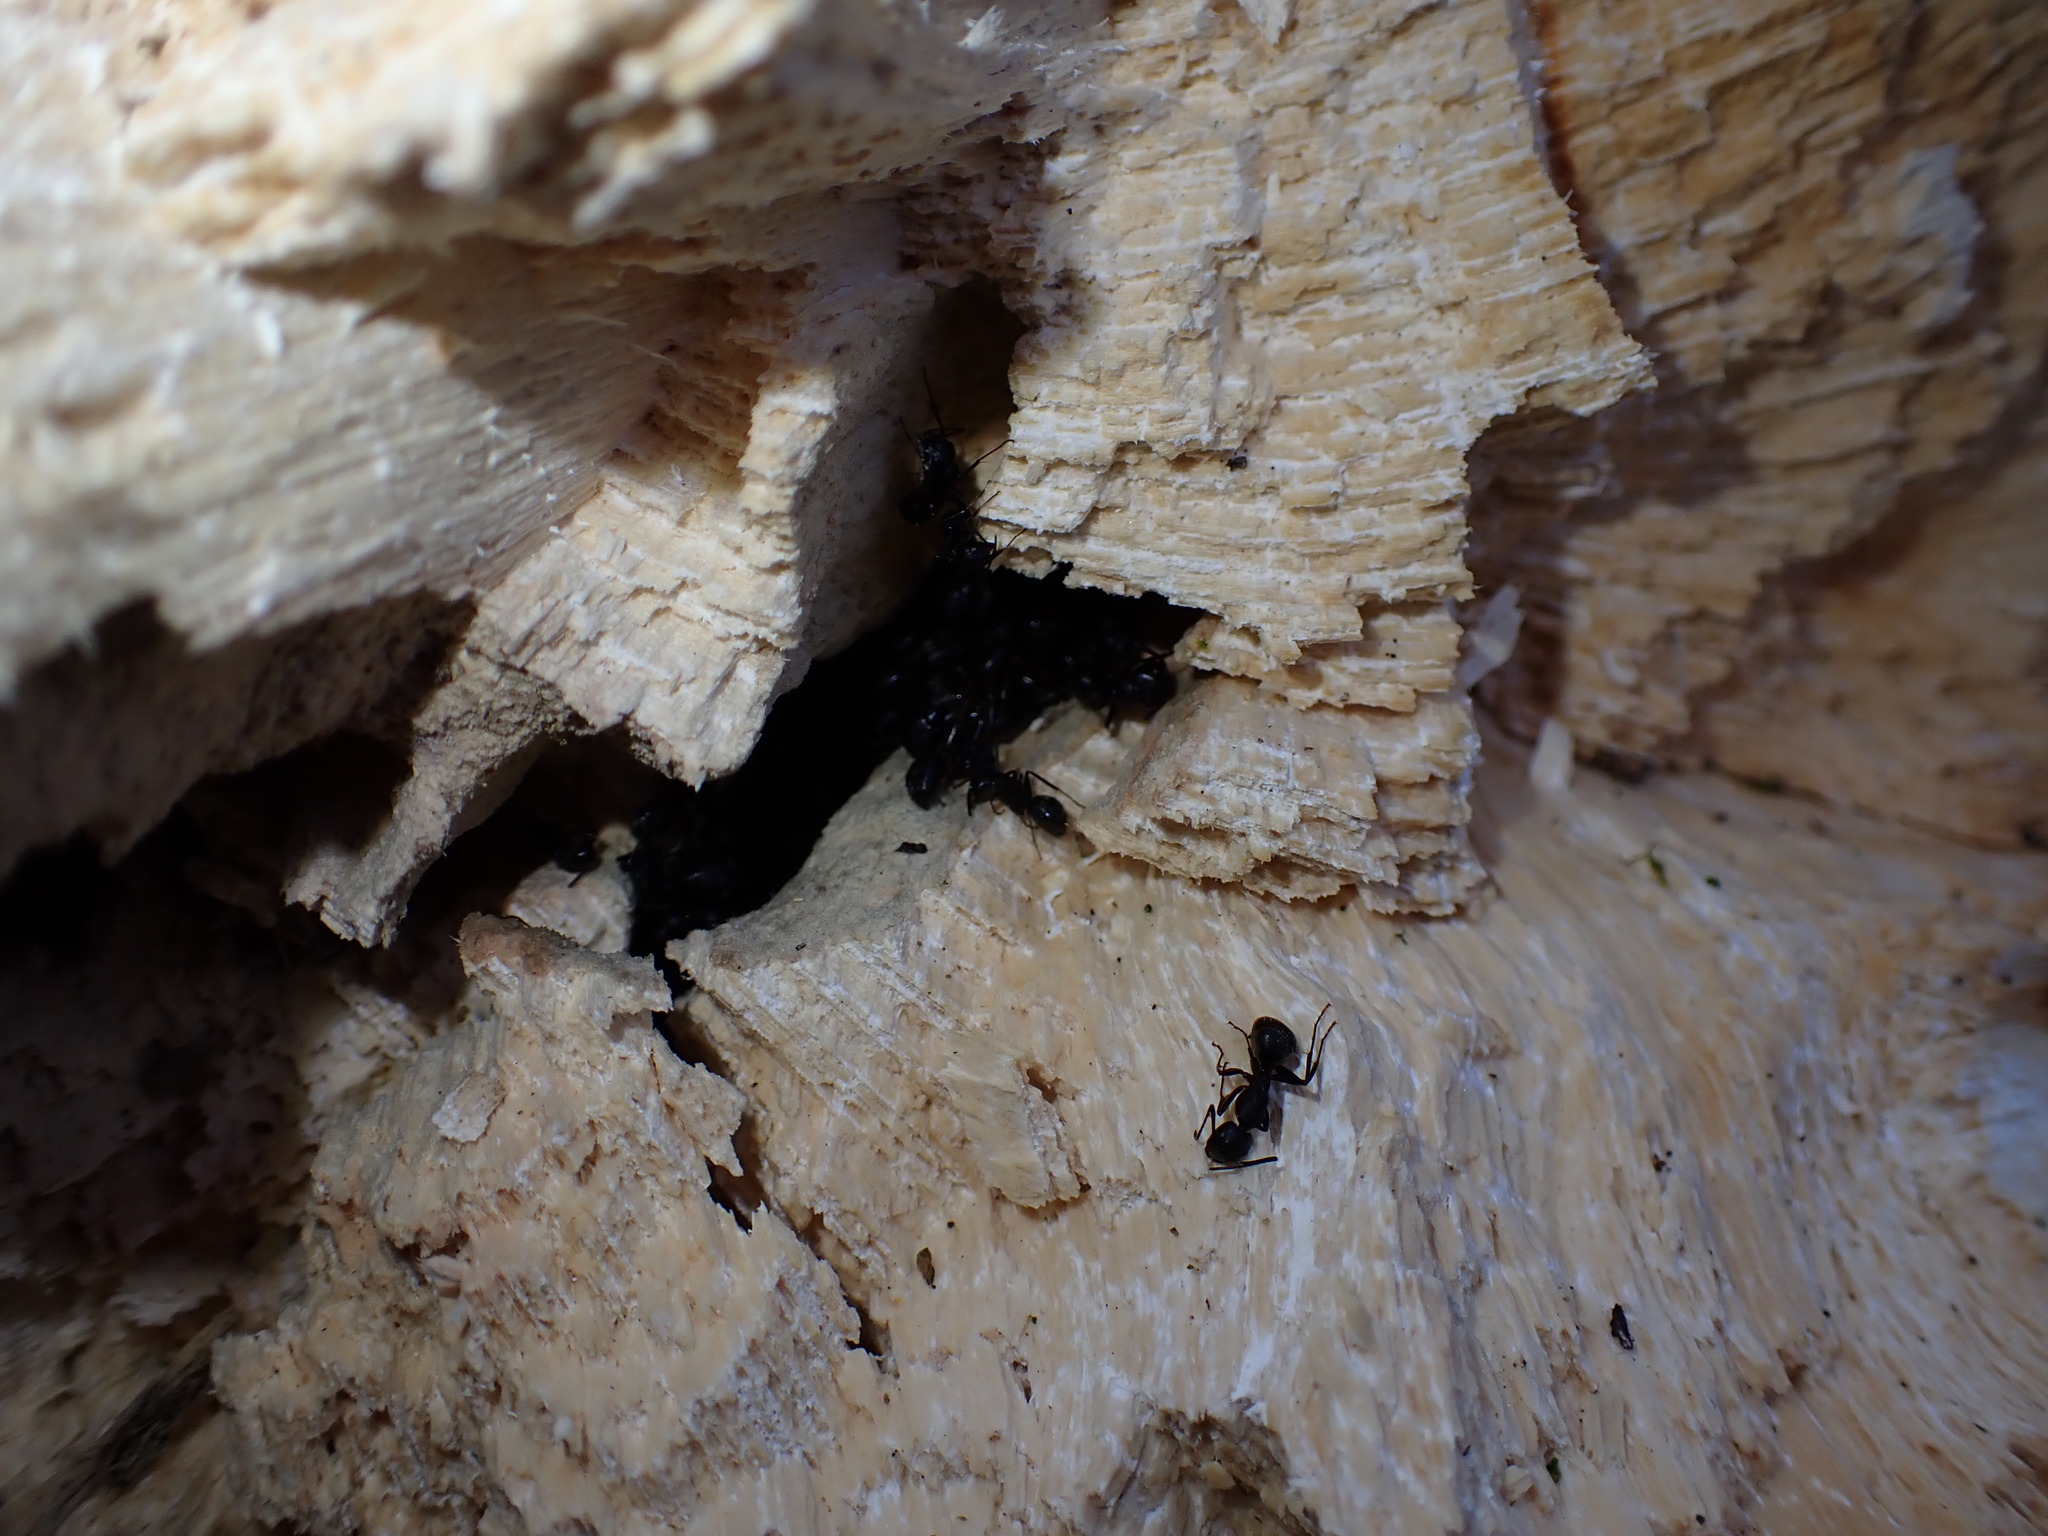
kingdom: Animalia
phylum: Arthropoda
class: Insecta
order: Hymenoptera
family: Formicidae
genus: Camponotus
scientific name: Camponotus pennsylvanicus
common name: Black carpenter ant
